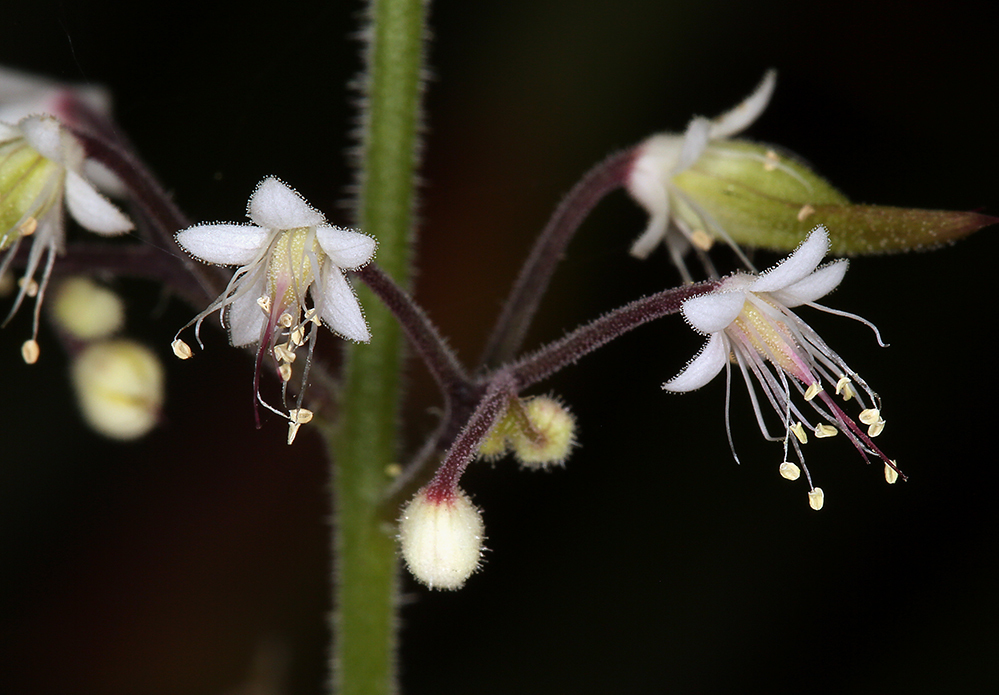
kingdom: Plantae
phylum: Tracheophyta
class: Magnoliopsida
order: Saxifragales
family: Saxifragaceae
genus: Tiarella
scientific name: Tiarella trifoliata
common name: Sugar-scoop
